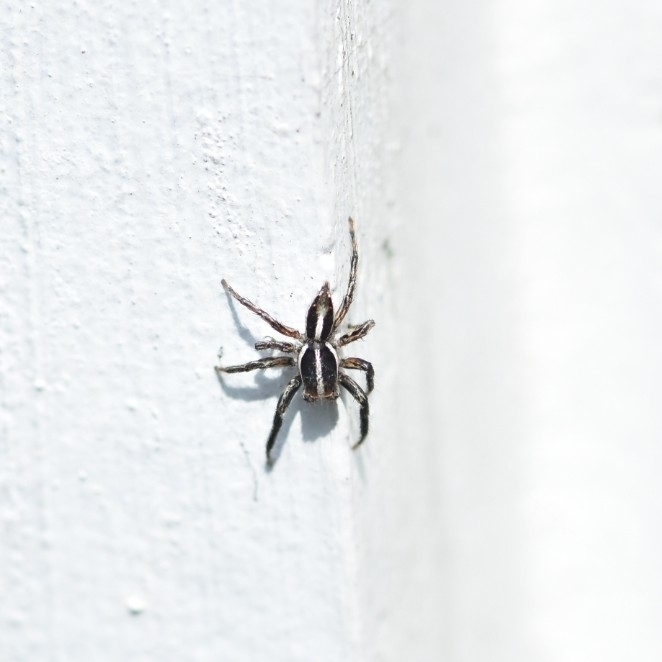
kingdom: Animalia
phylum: Arthropoda
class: Arachnida
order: Araneae
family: Salticidae
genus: Plexippus
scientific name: Plexippus paykulli
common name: Pantropical jumper
